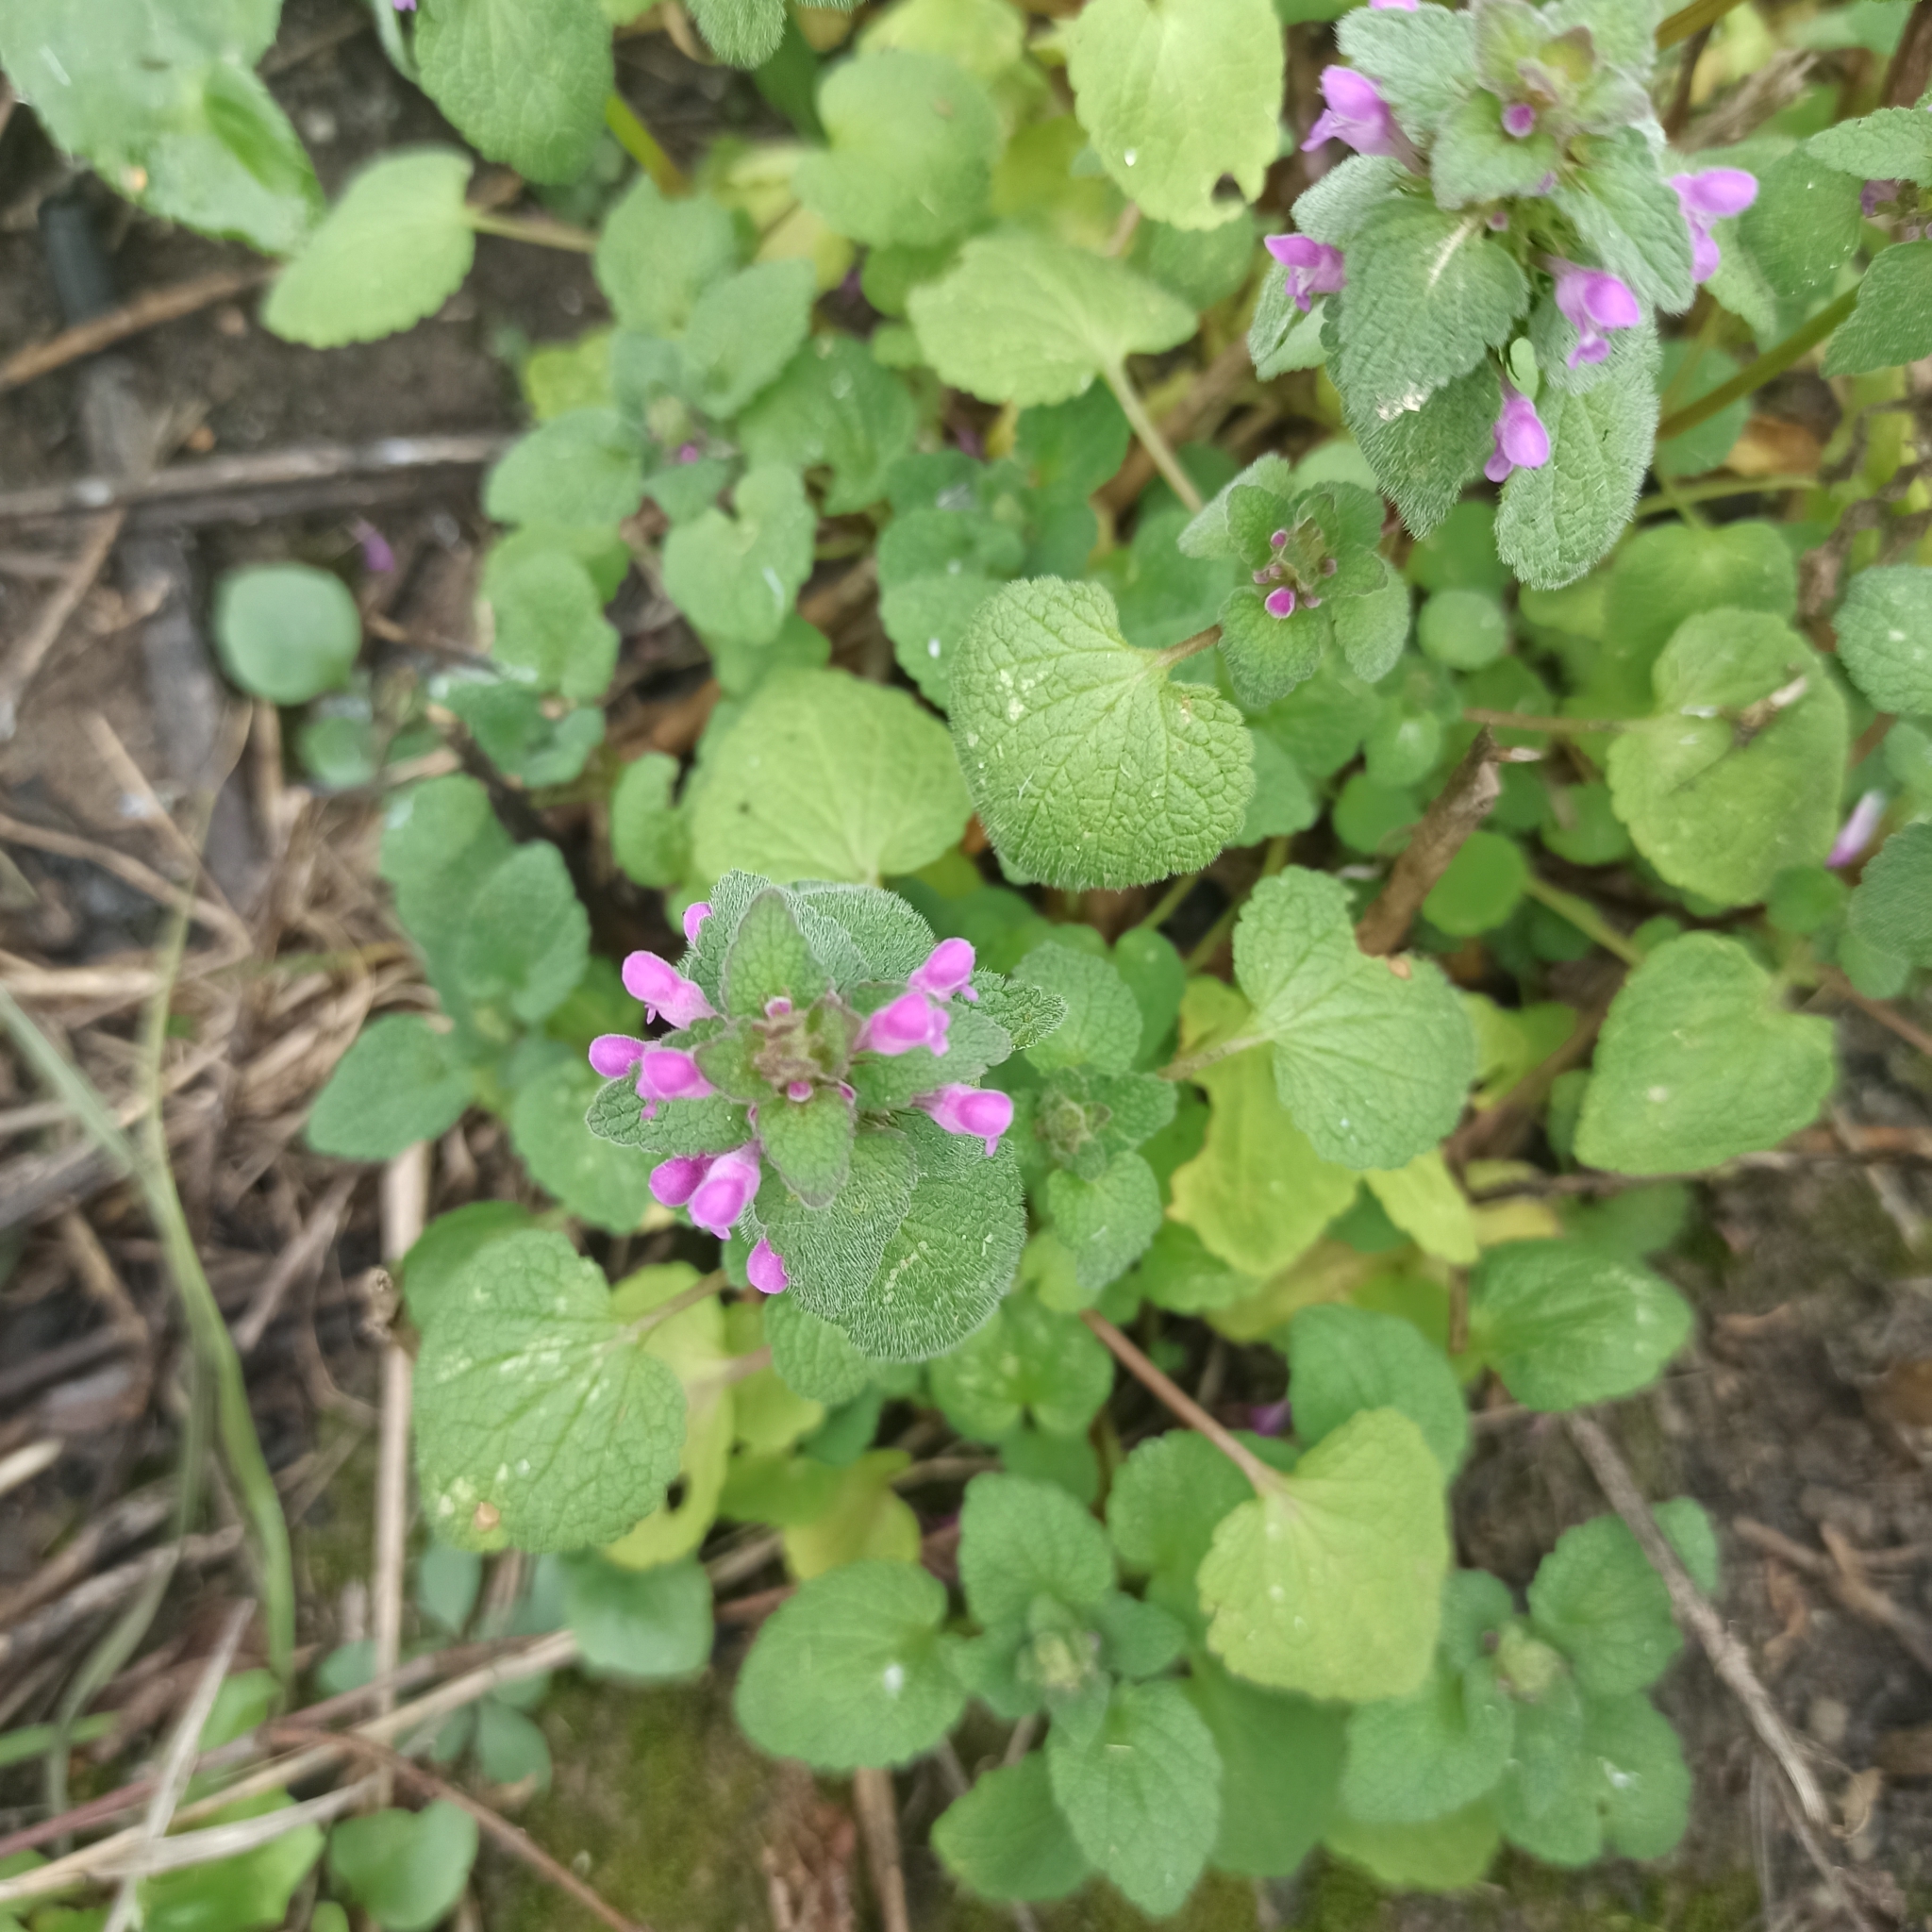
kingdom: Plantae
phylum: Tracheophyta
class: Magnoliopsida
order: Lamiales
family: Lamiaceae
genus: Lamium
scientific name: Lamium purpureum
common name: Red dead-nettle
